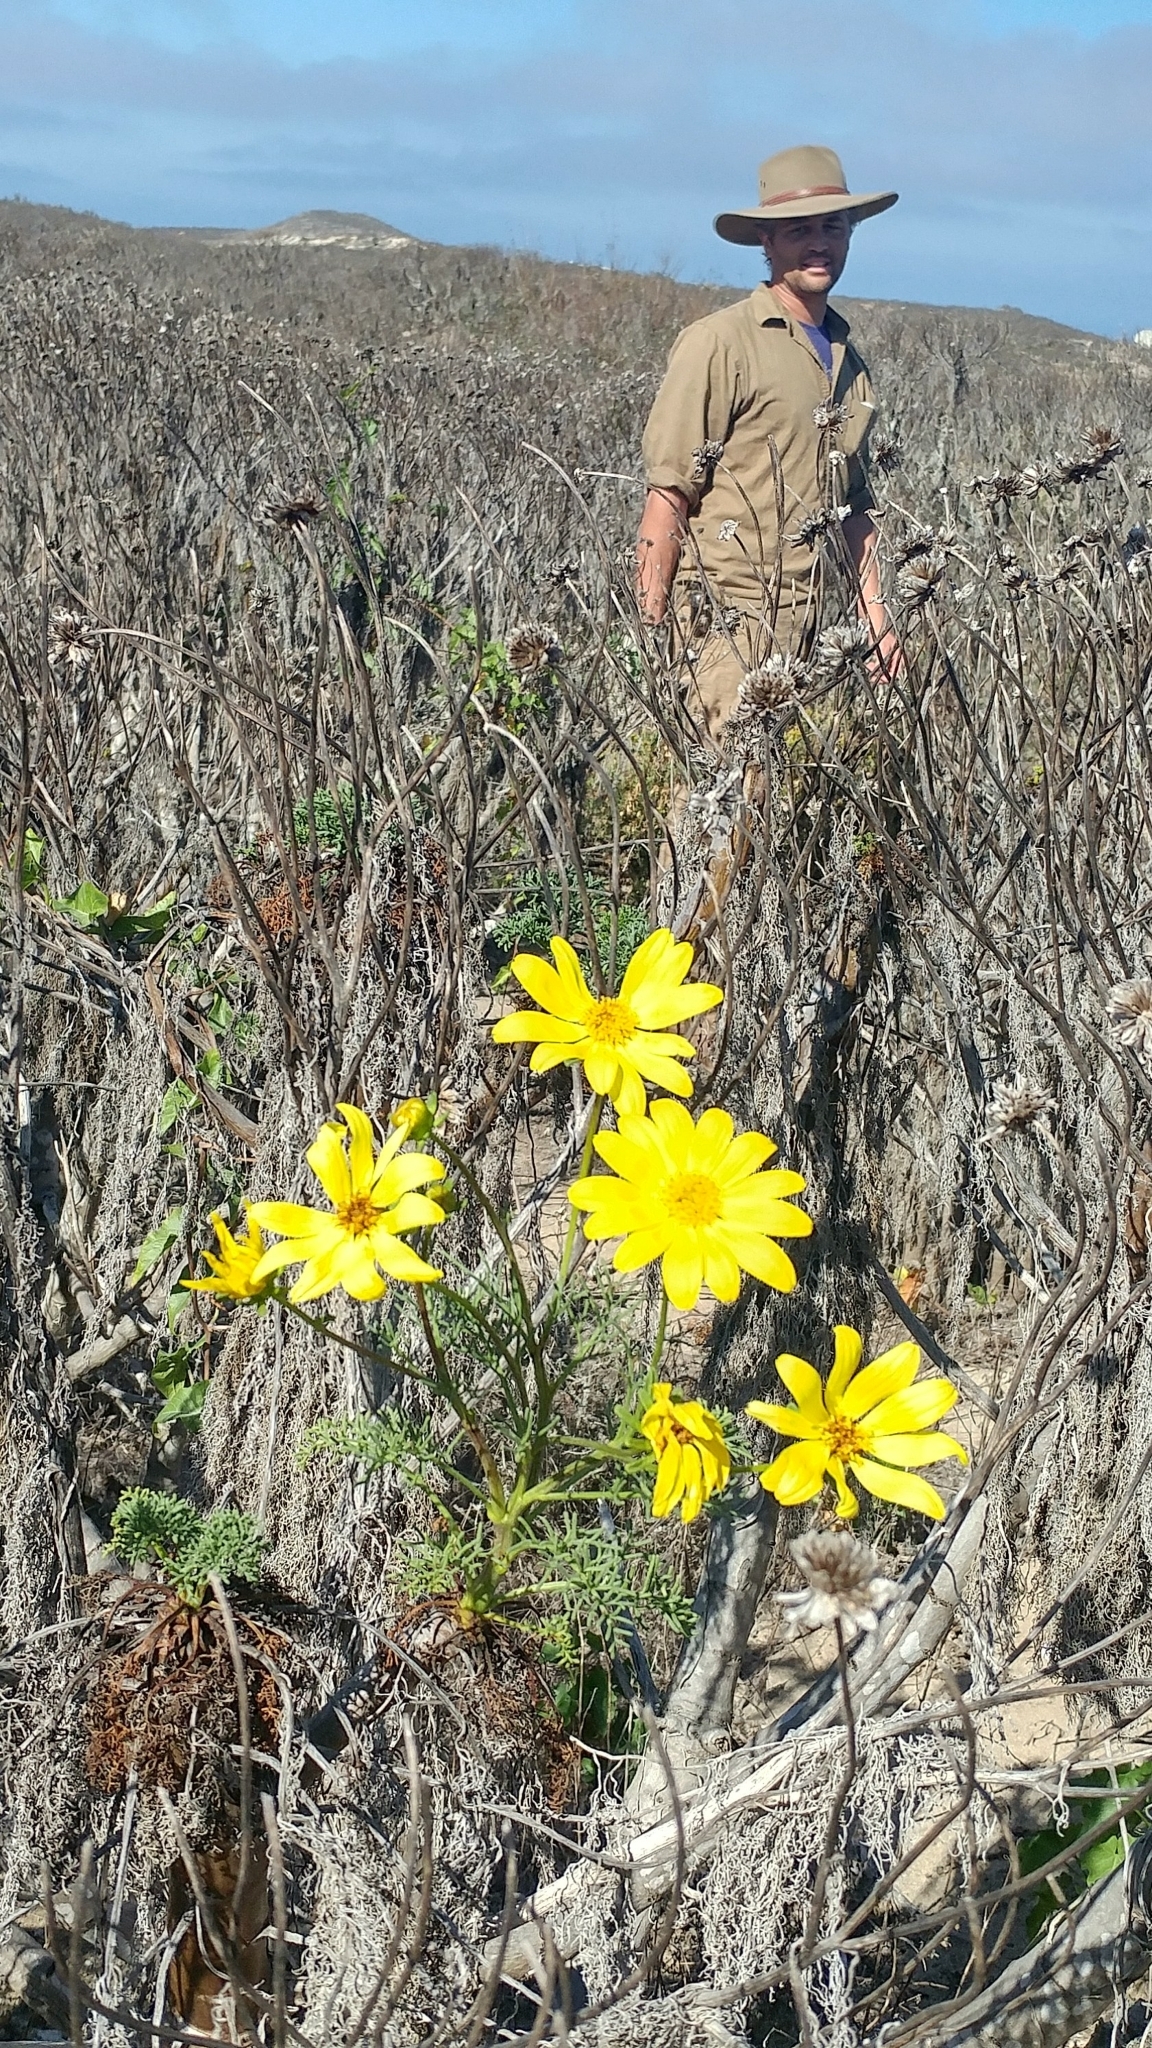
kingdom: Plantae
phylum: Tracheophyta
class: Magnoliopsida
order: Asterales
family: Asteraceae
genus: Coreopsis
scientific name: Coreopsis gigantea
